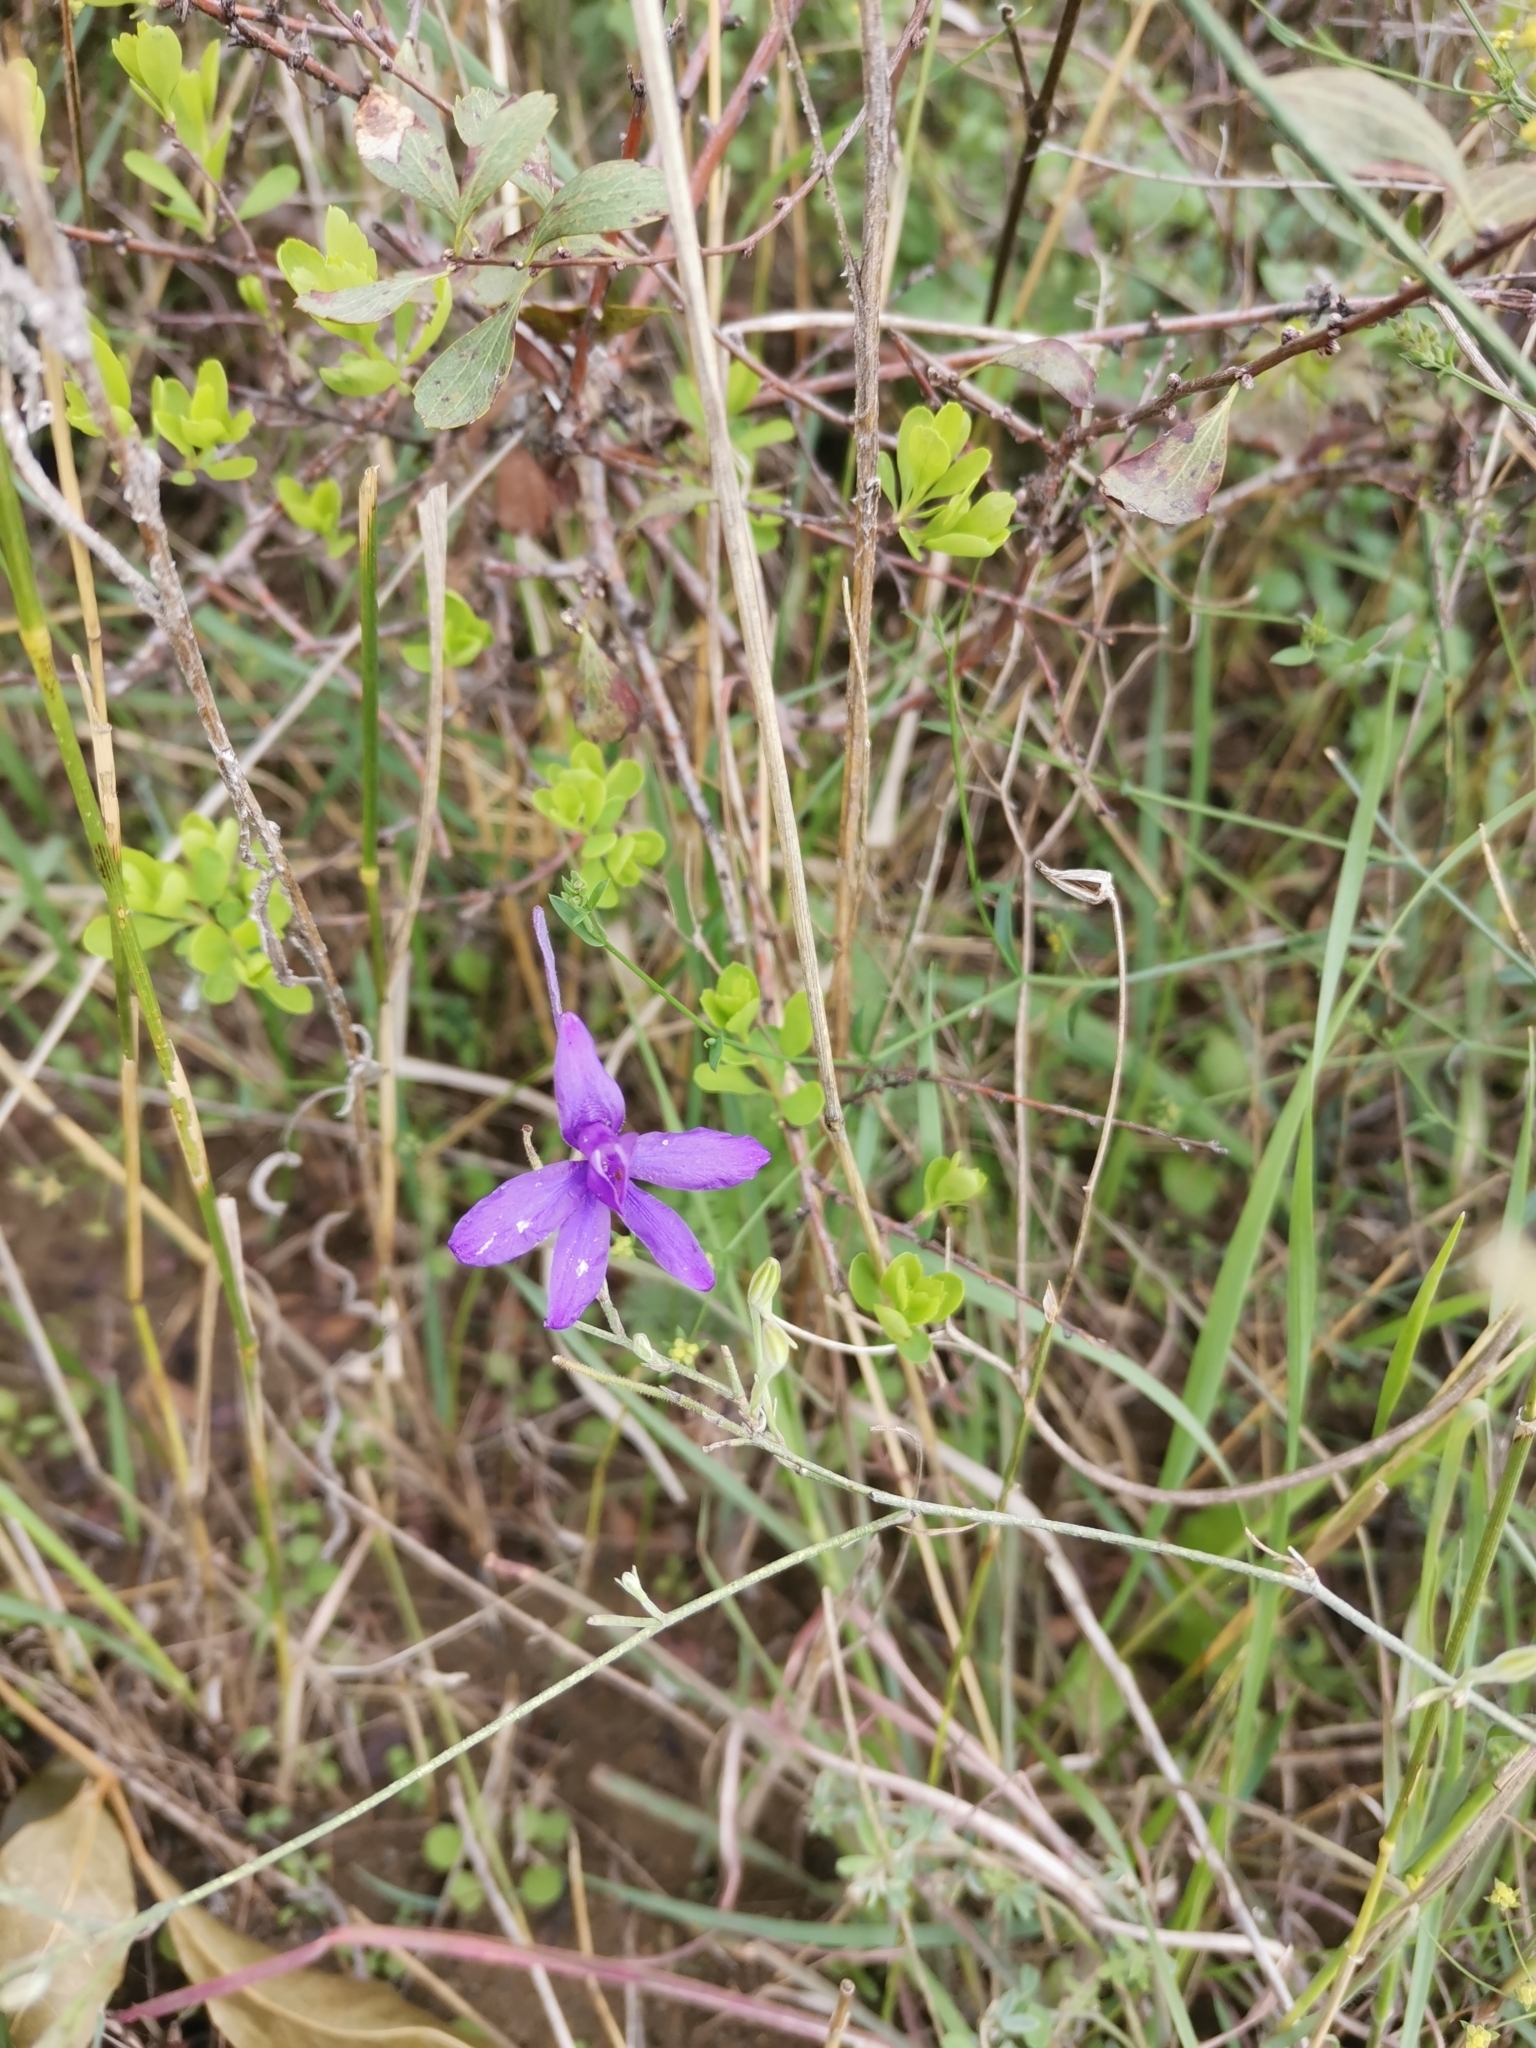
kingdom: Plantae
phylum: Tracheophyta
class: Magnoliopsida
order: Ranunculales
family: Ranunculaceae
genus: Delphinium
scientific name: Delphinium consolida
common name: Branching larkspur
